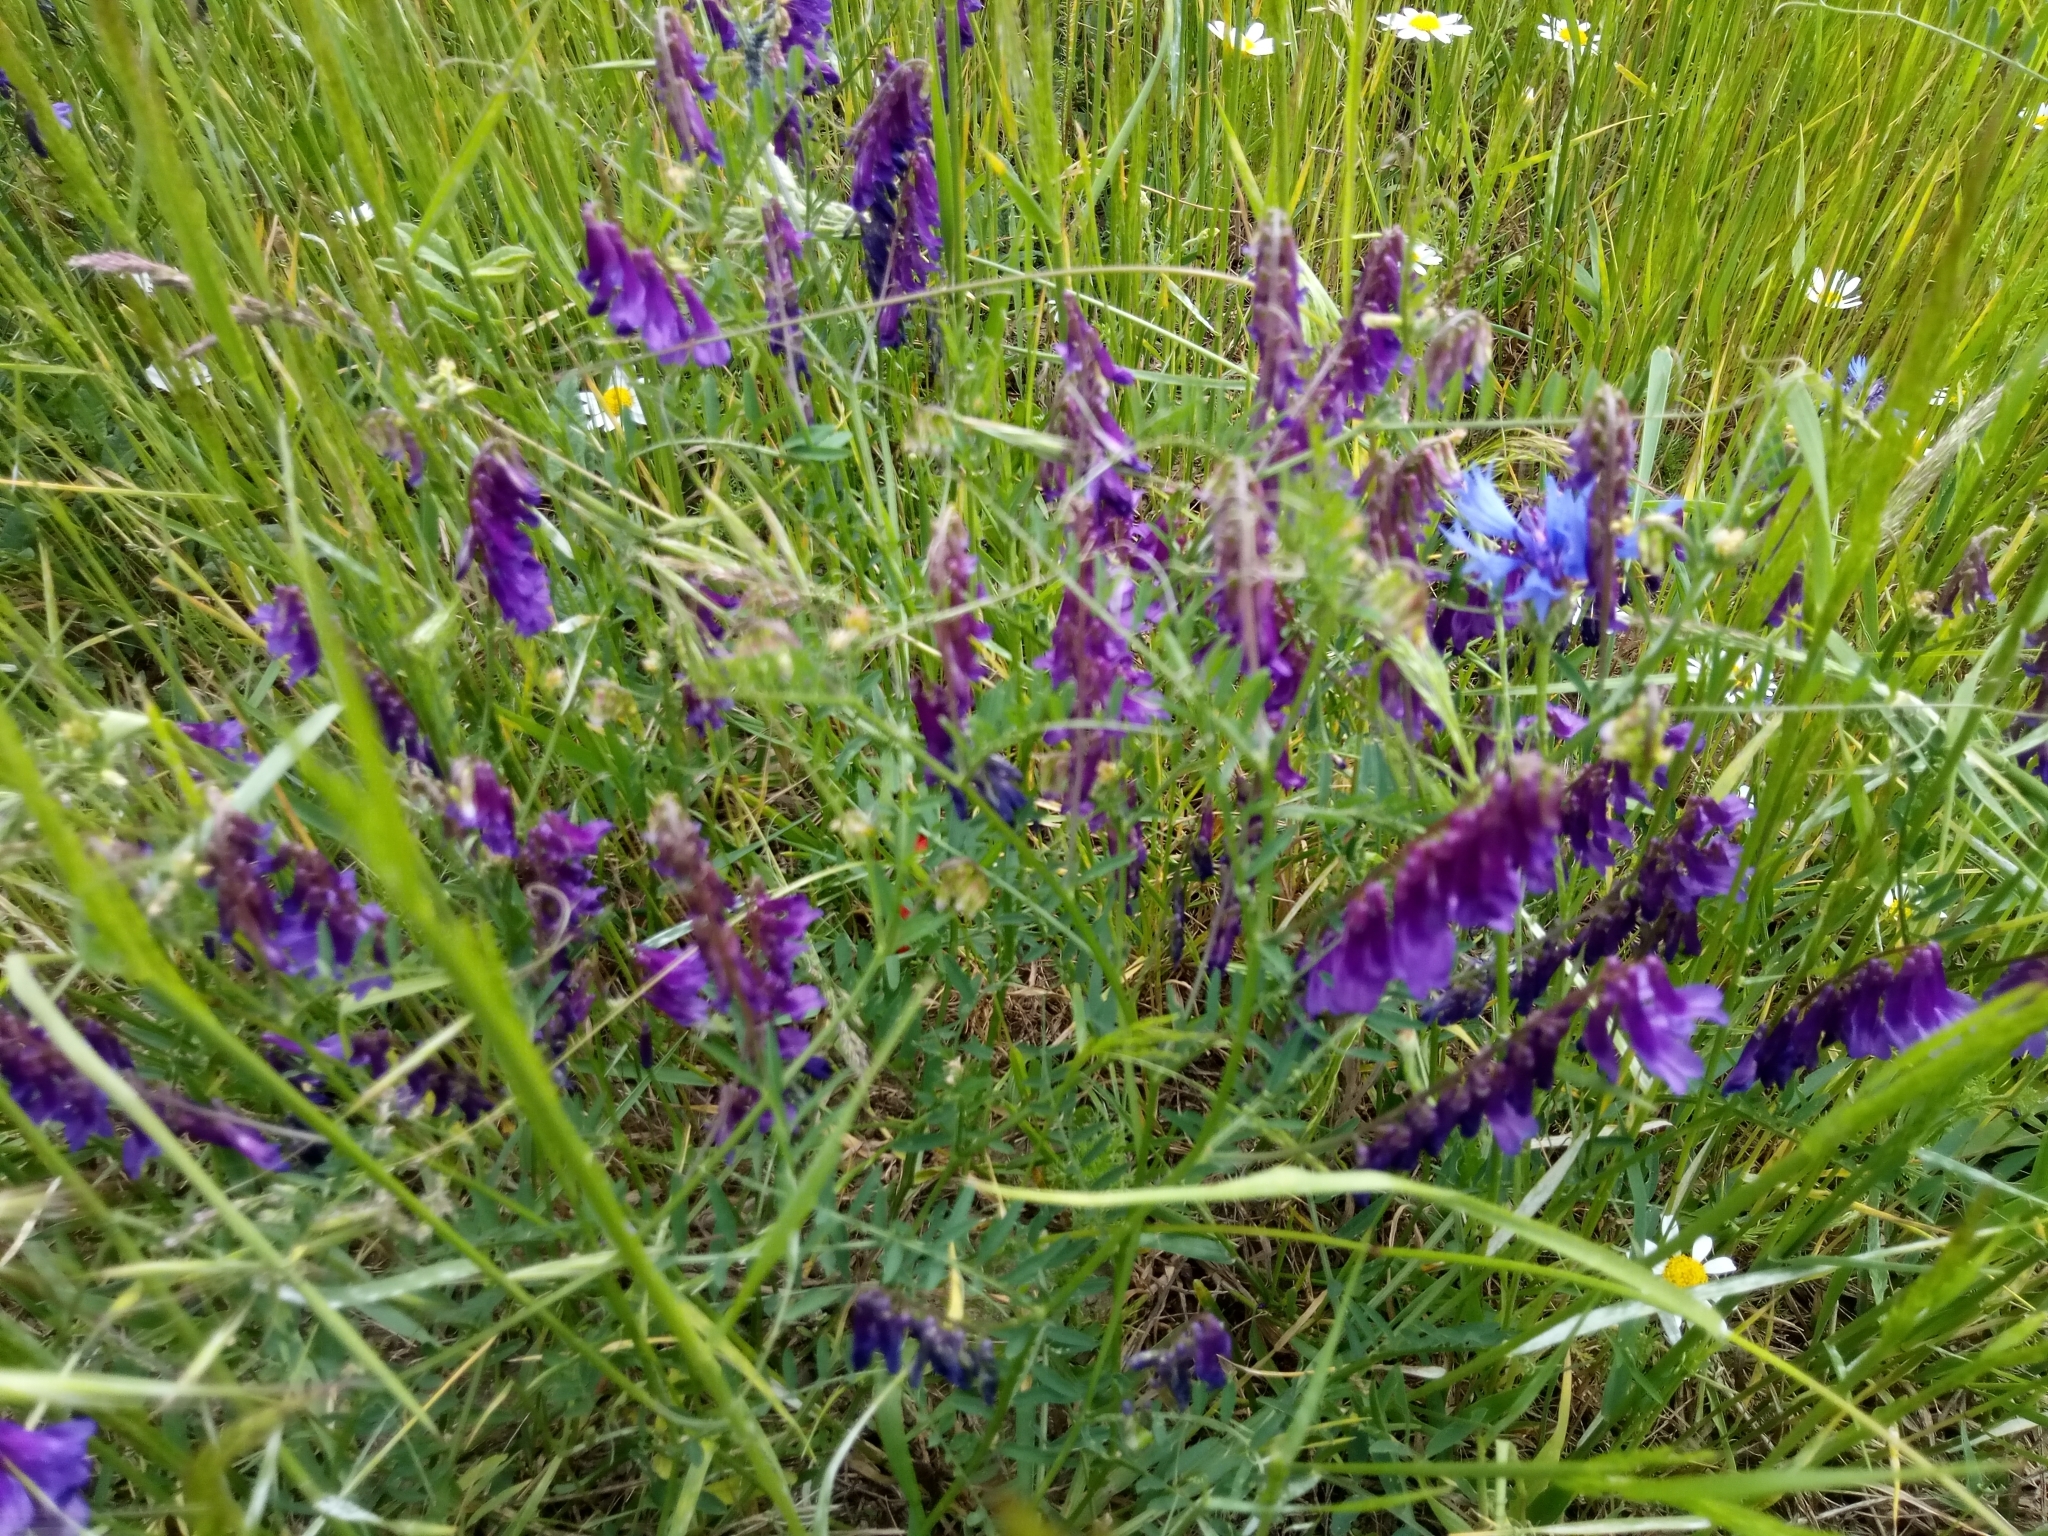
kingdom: Plantae
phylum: Tracheophyta
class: Magnoliopsida
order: Fabales
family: Fabaceae
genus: Vicia
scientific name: Vicia villosa
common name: Fodder vetch
